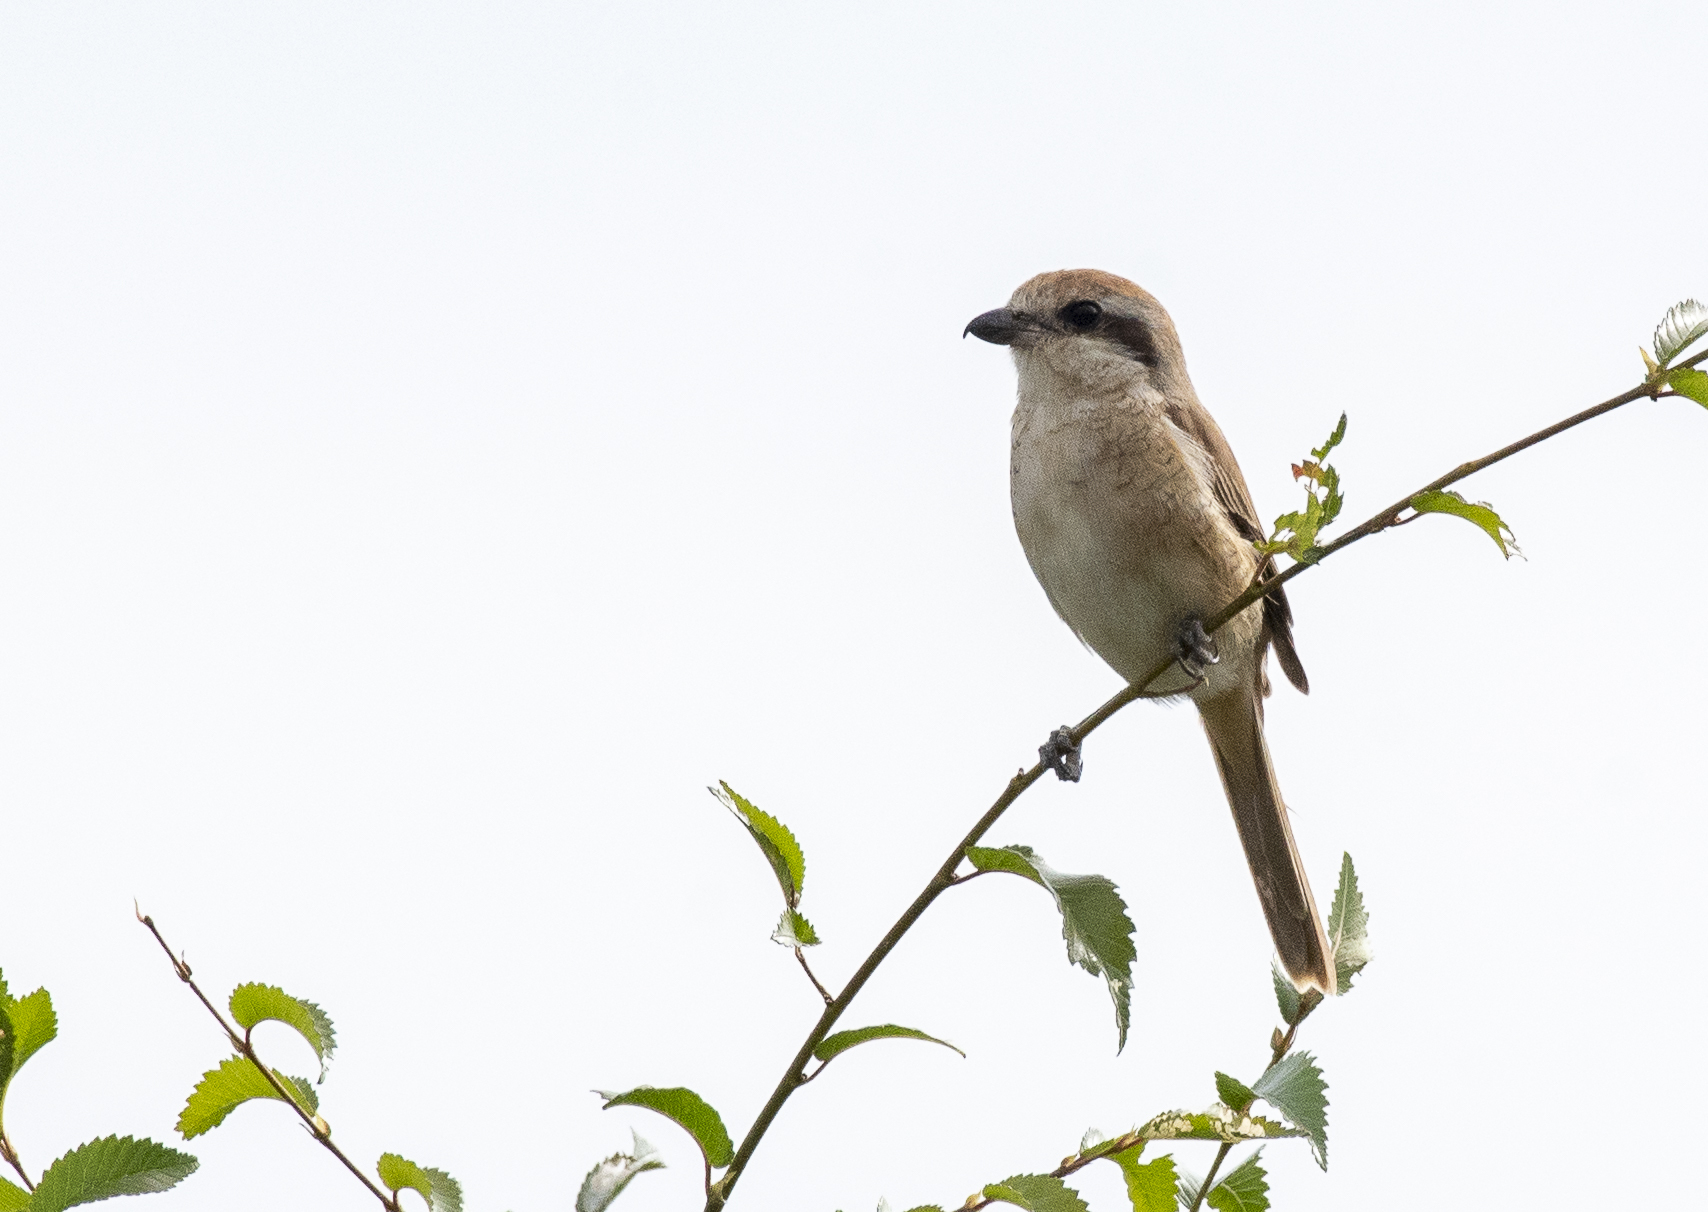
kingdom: Animalia
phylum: Chordata
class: Aves
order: Passeriformes
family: Laniidae
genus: Lanius
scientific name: Lanius cristatus
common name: Brown shrike
